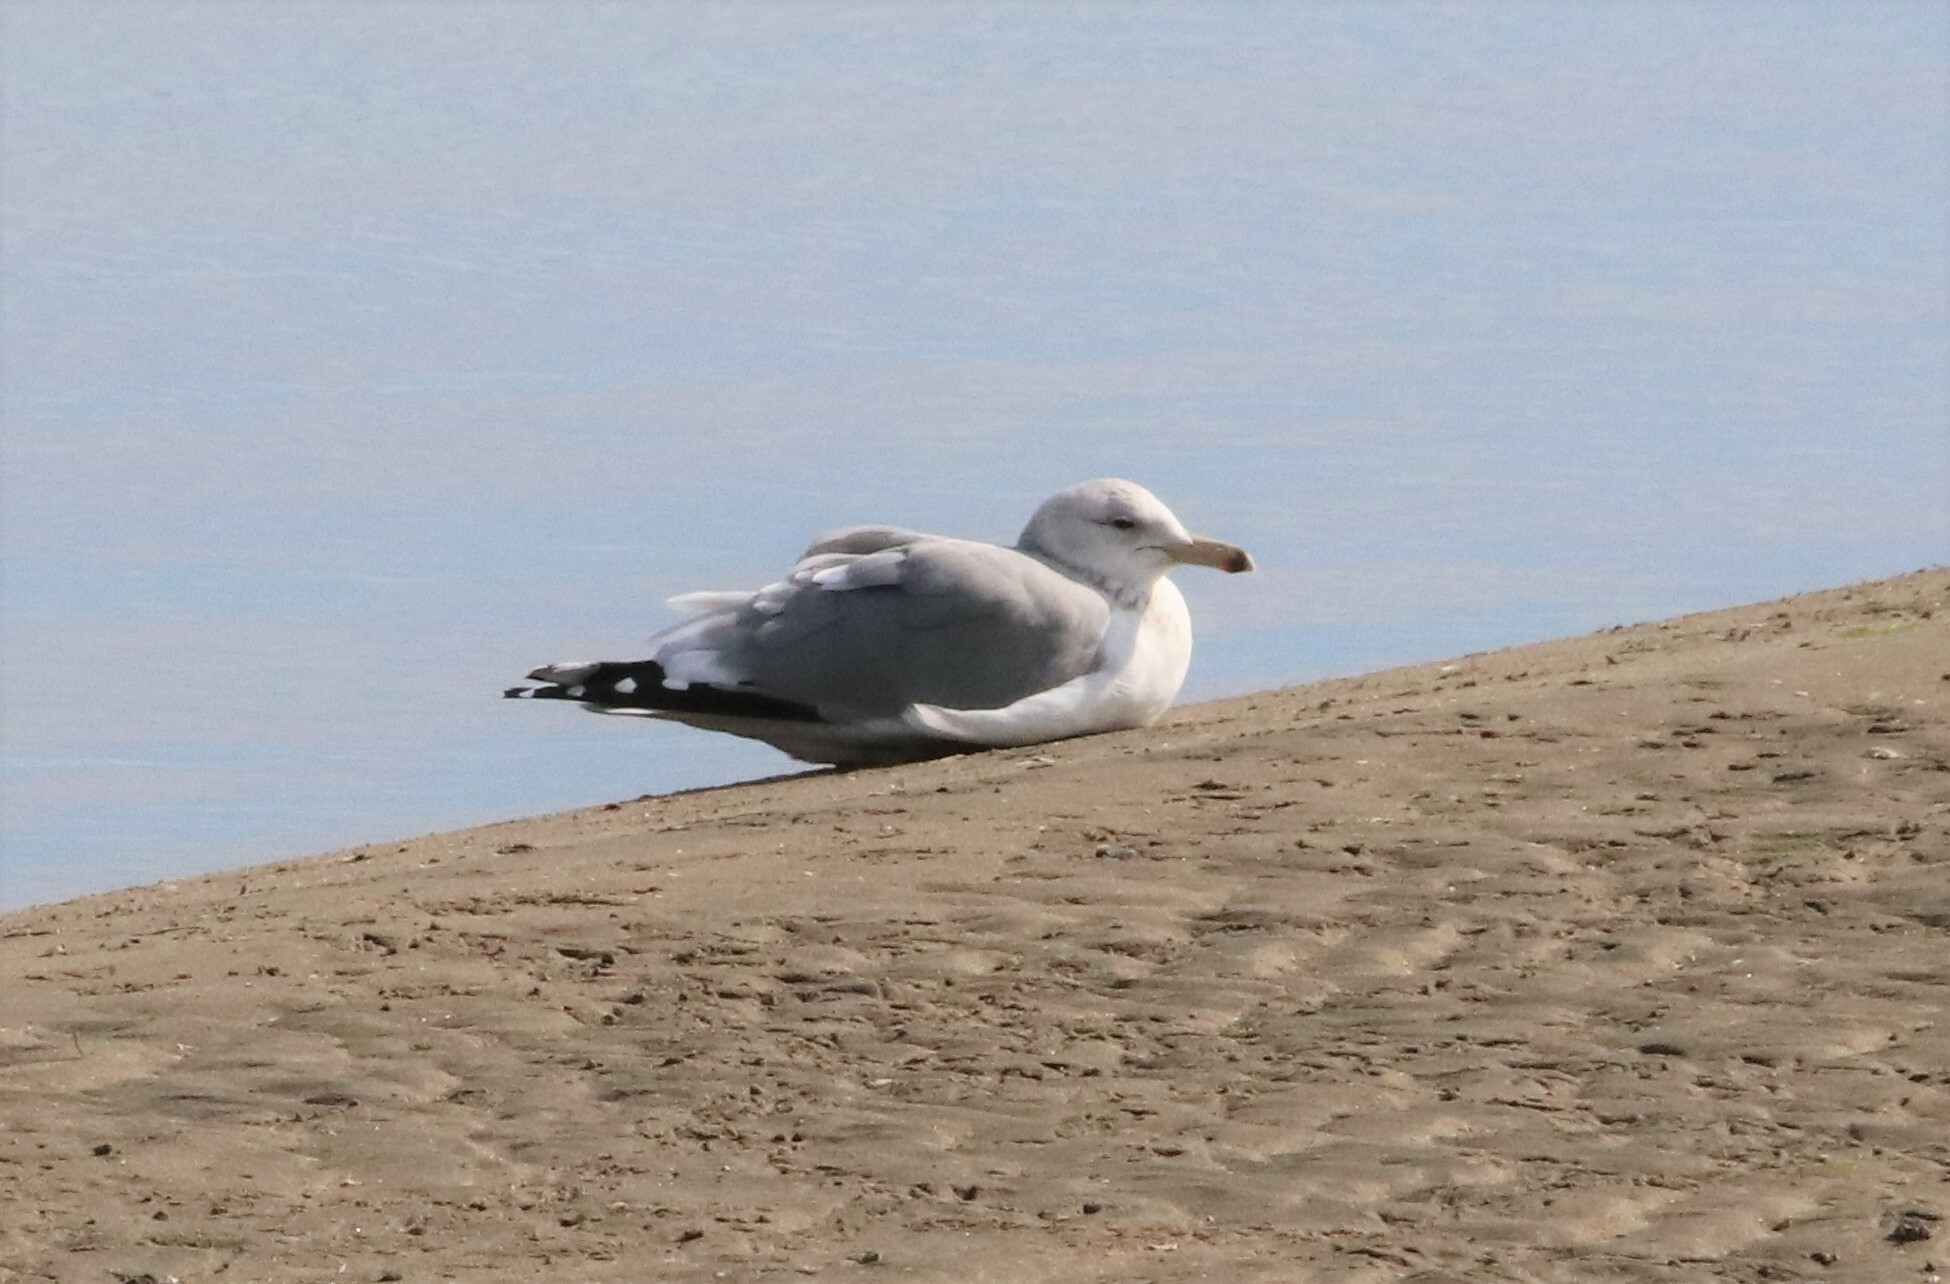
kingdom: Animalia
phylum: Chordata
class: Aves
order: Charadriiformes
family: Laridae
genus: Larus
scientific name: Larus californicus
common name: California gull
